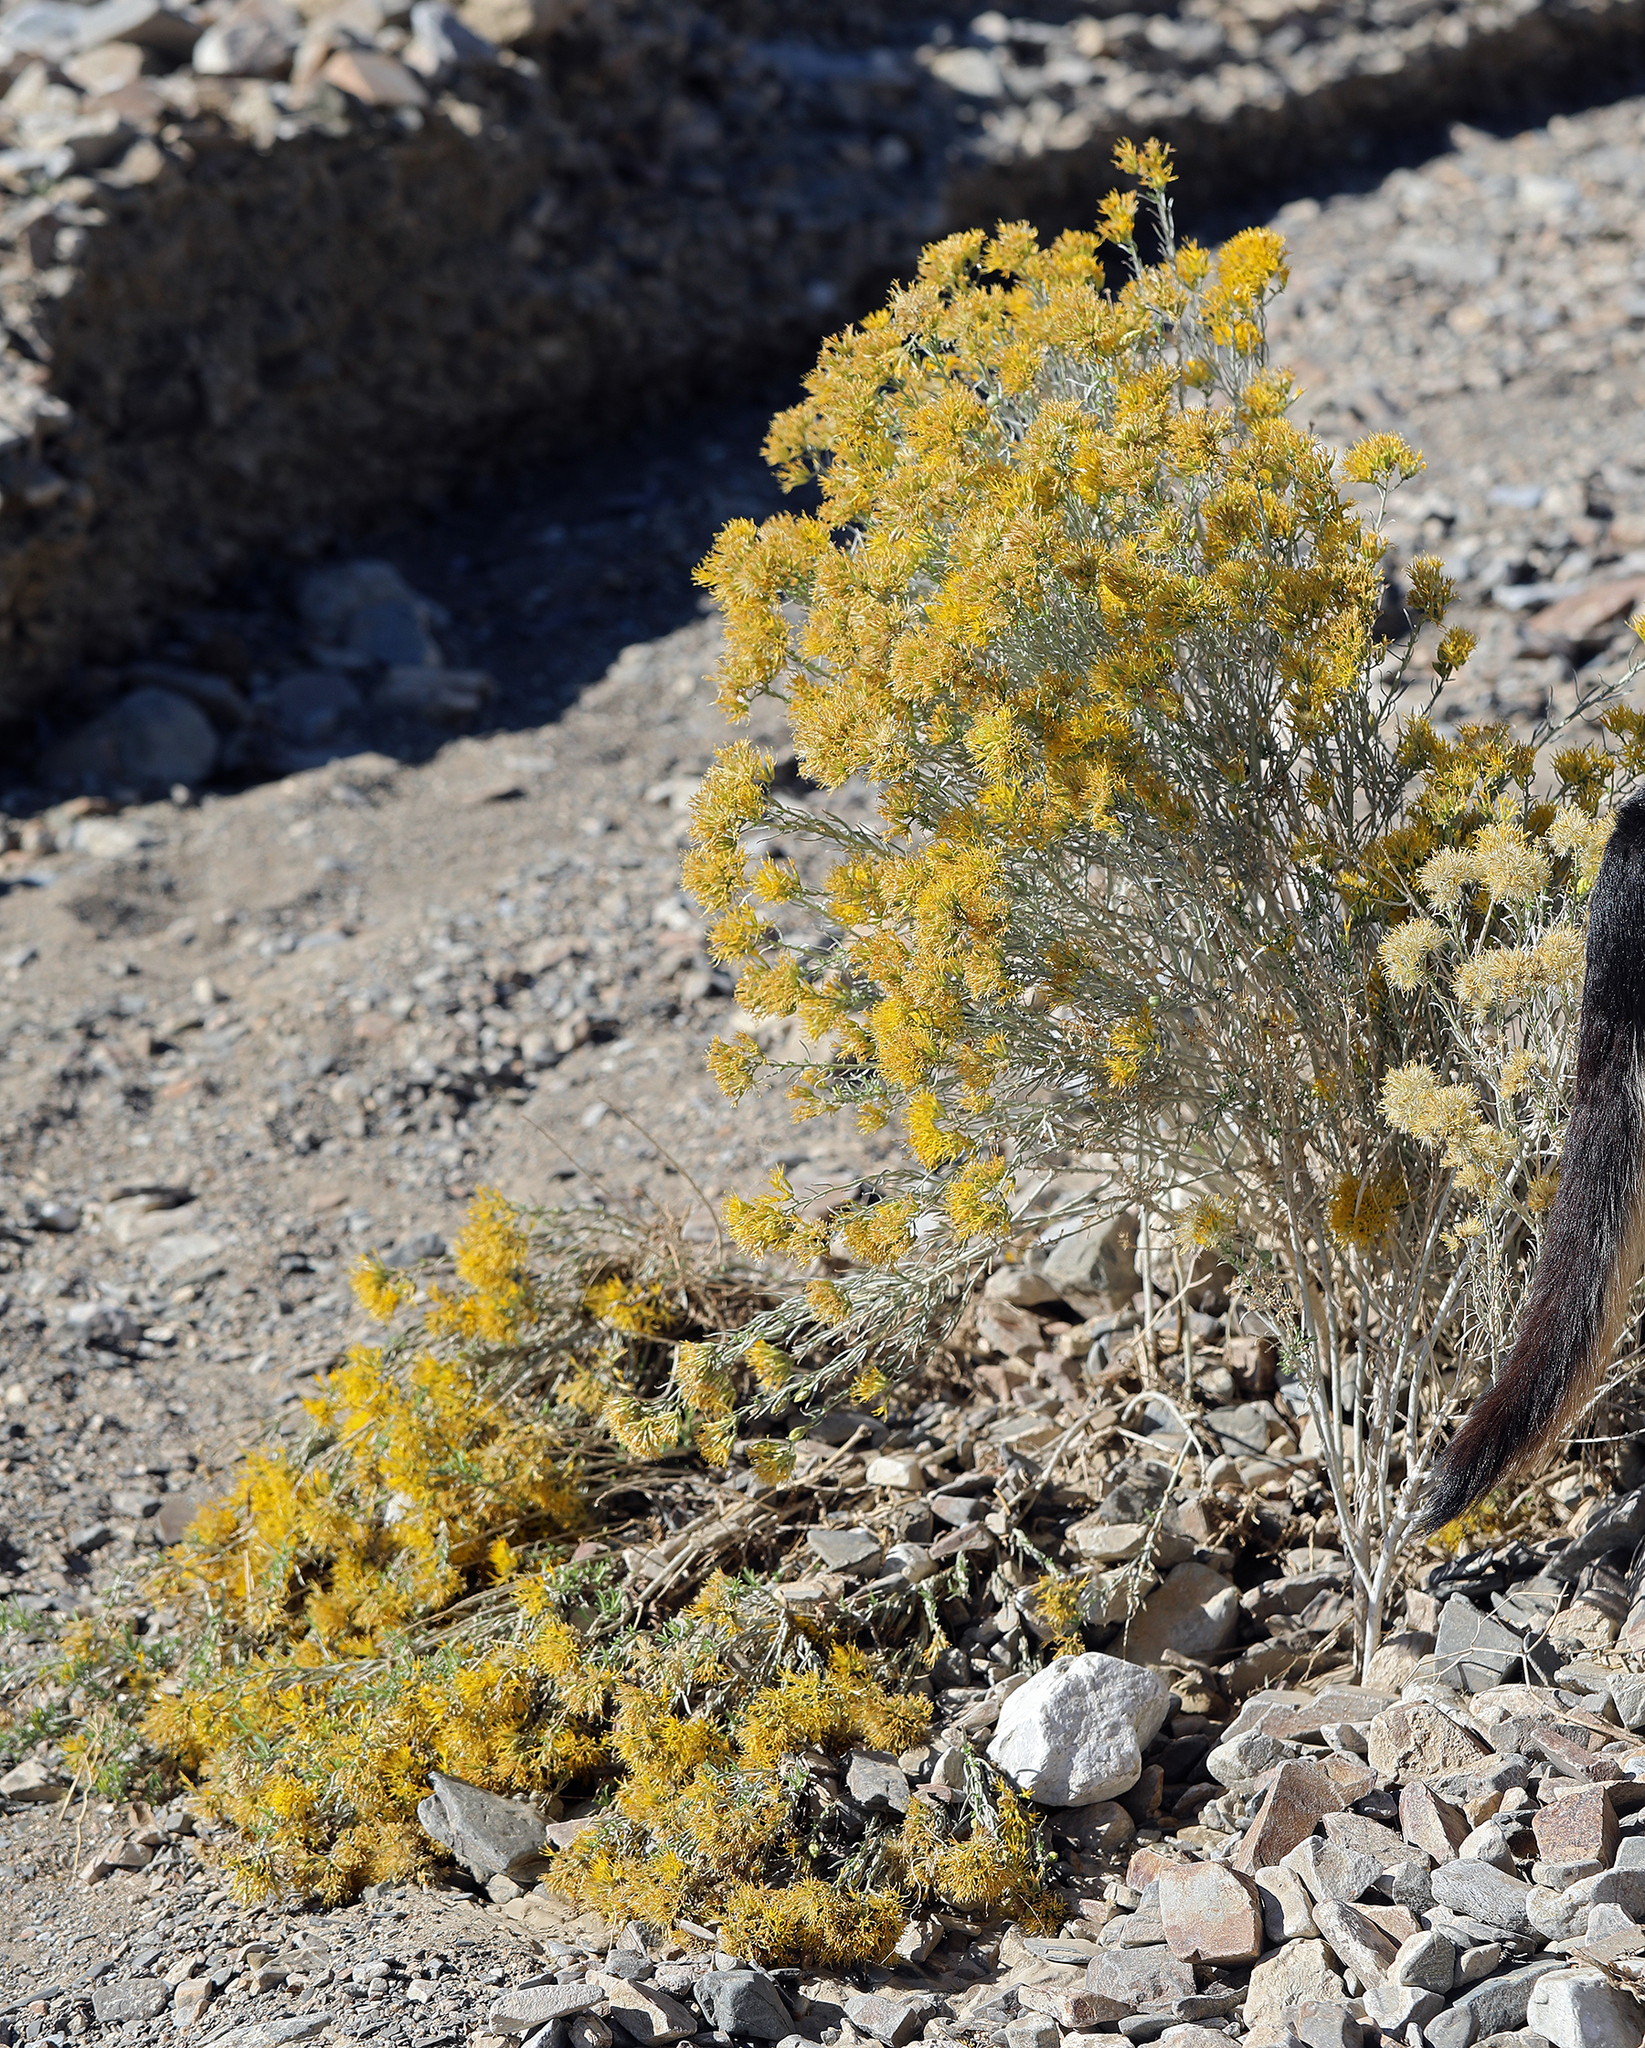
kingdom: Plantae
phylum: Tracheophyta
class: Magnoliopsida
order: Asterales
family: Asteraceae
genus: Ericameria
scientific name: Ericameria nauseosa
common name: Rubber rabbitbrush
